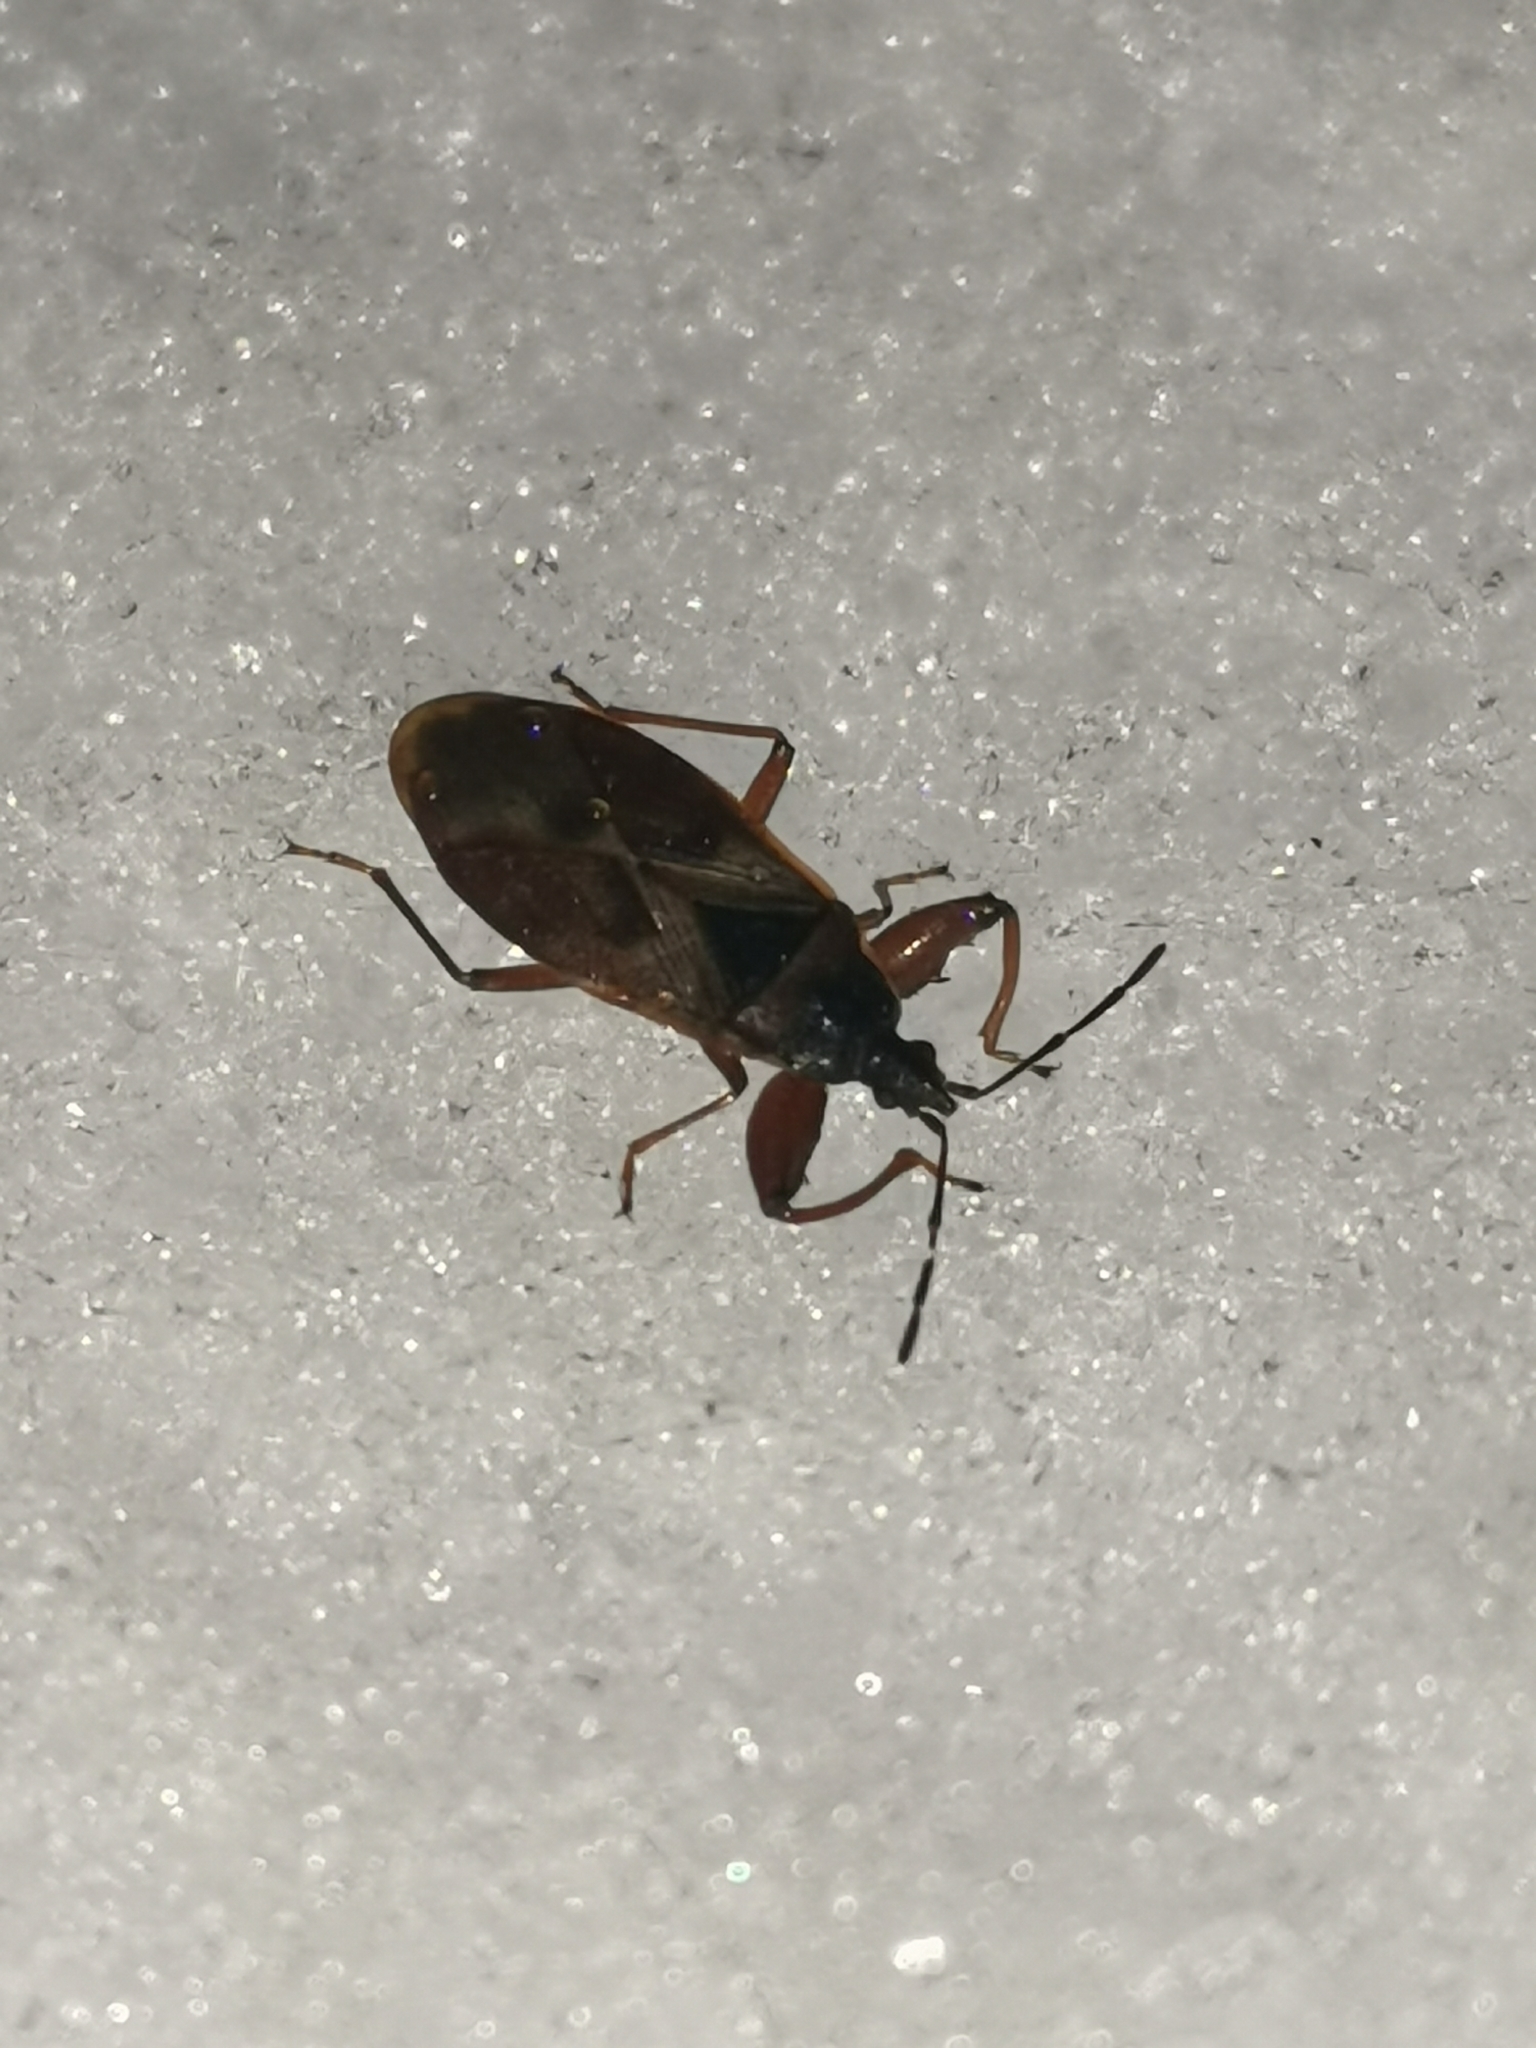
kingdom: Animalia
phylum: Arthropoda
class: Insecta
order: Hemiptera
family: Rhyparochromidae
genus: Gastrodes
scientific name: Gastrodes abietum
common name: Spruce cone bug
